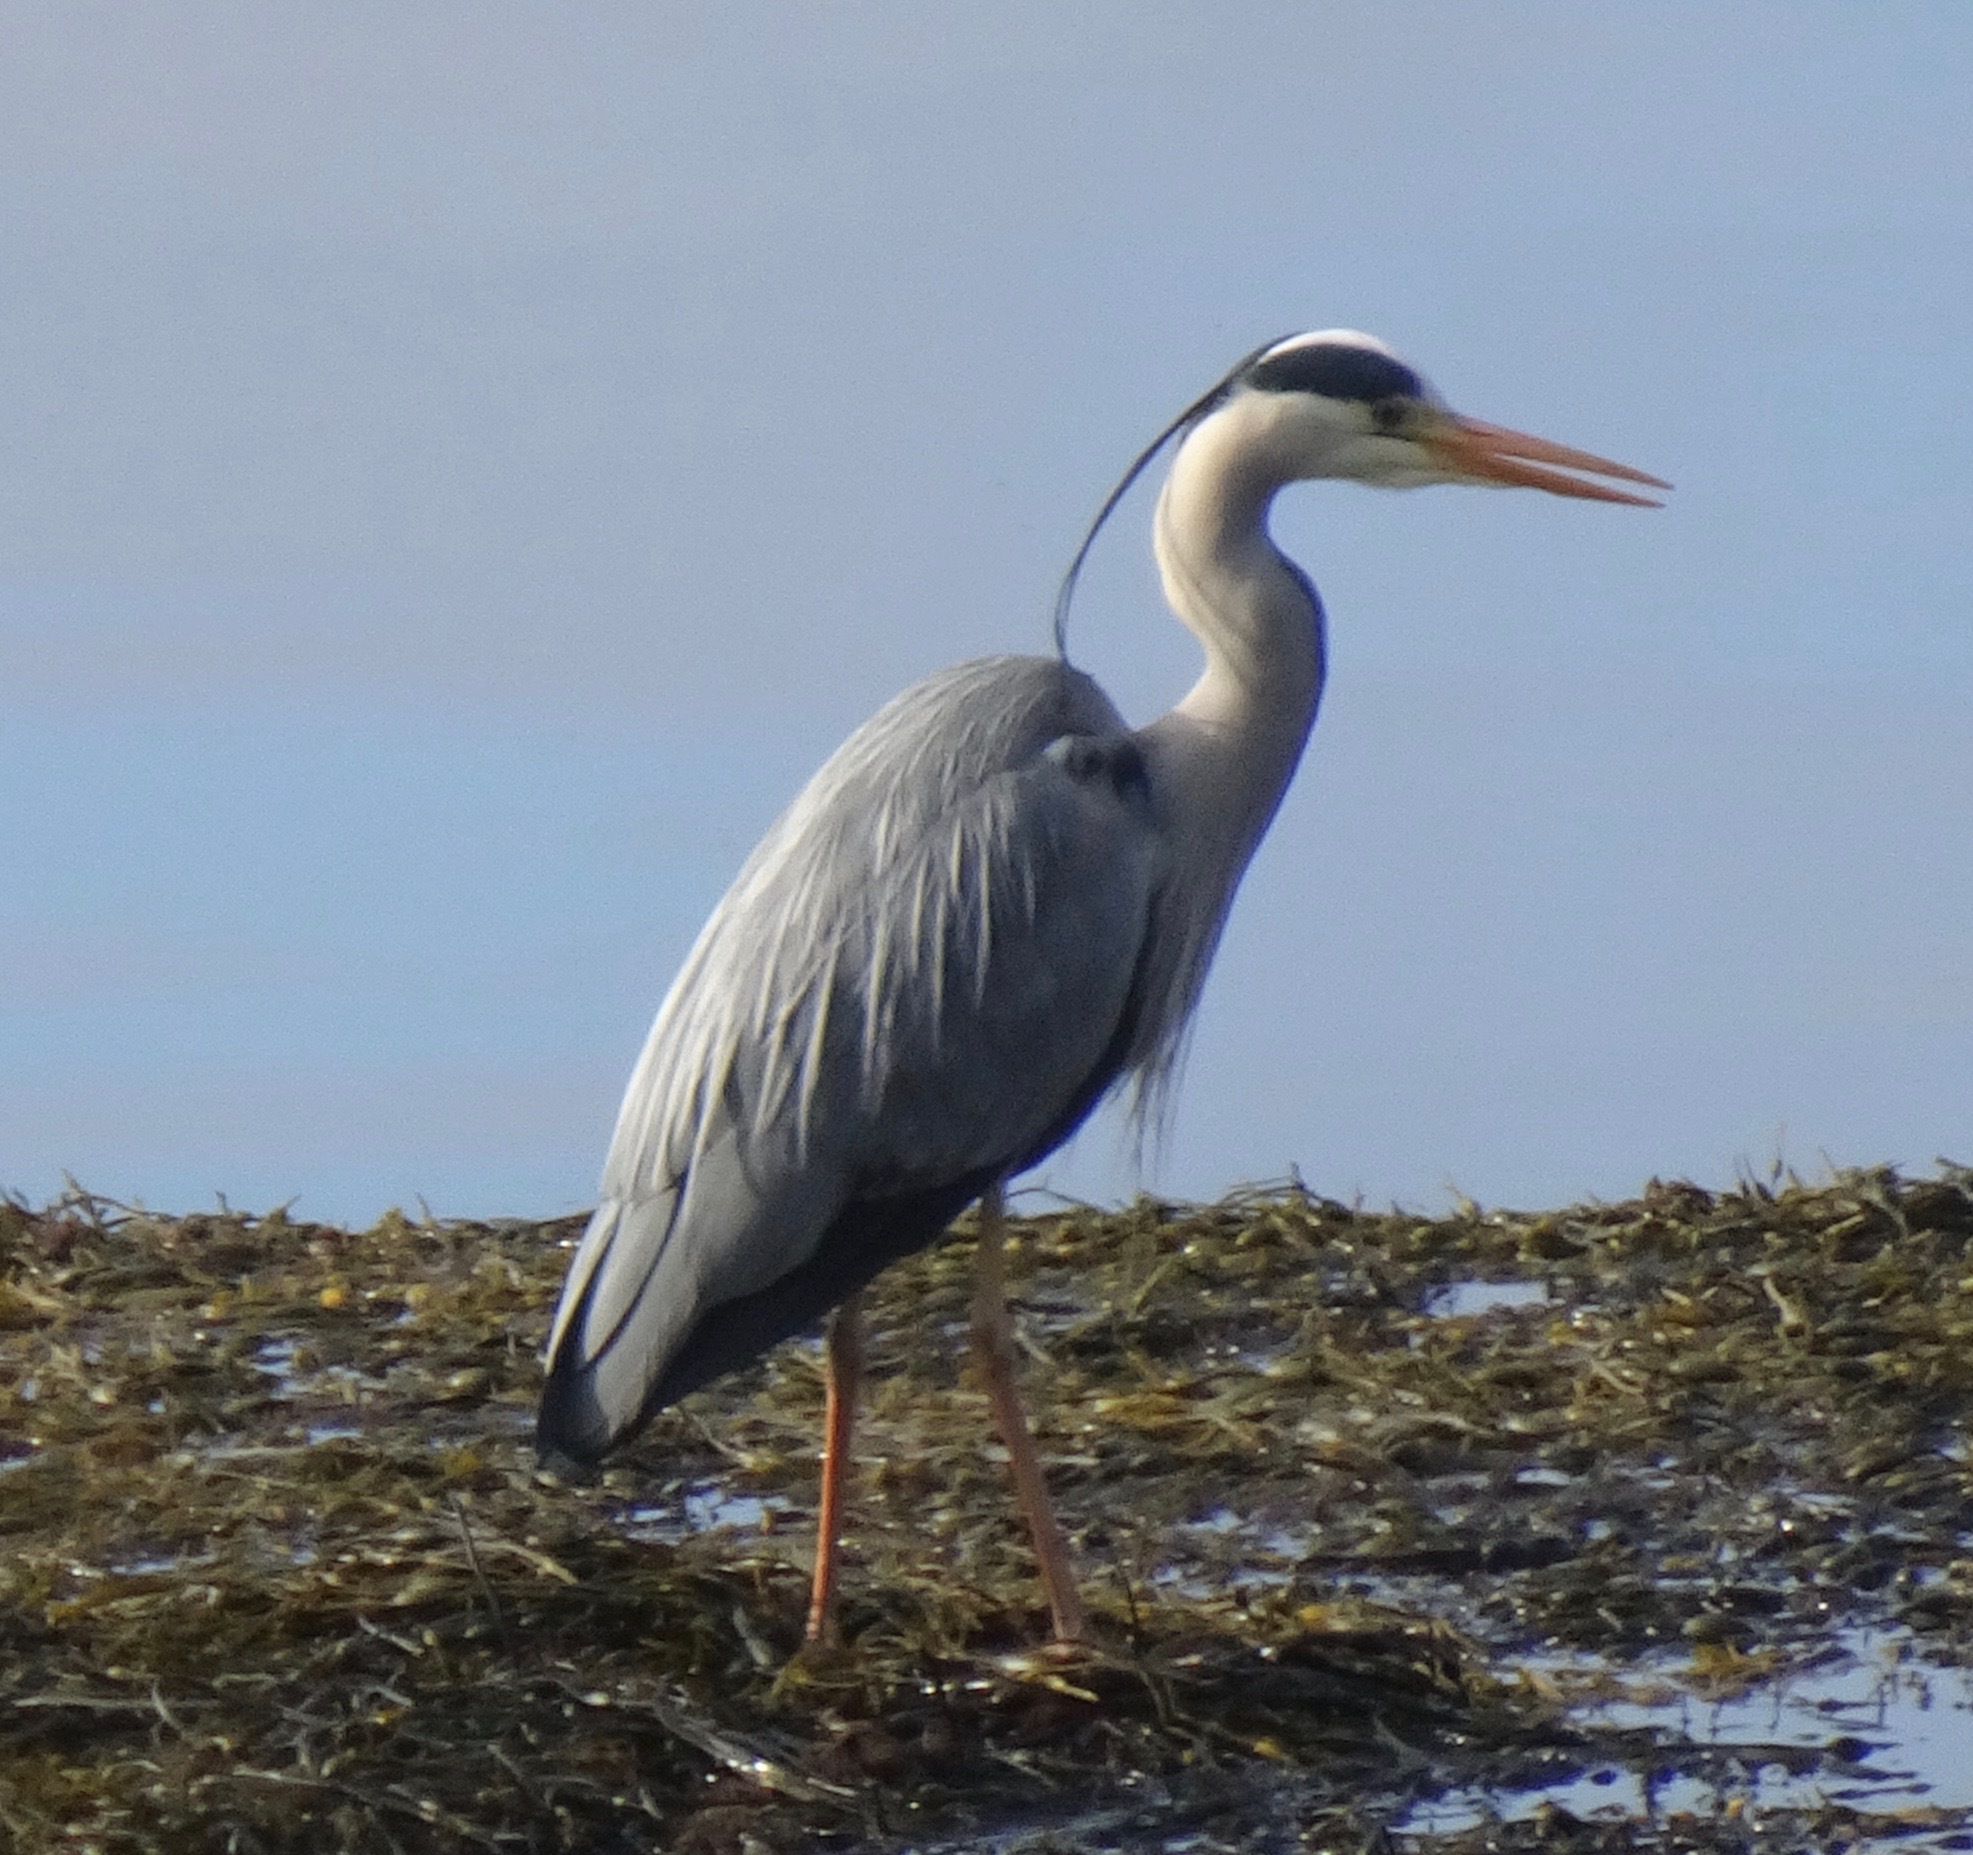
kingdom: Animalia
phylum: Chordata
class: Aves
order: Pelecaniformes
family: Ardeidae
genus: Ardea
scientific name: Ardea cinerea
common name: Grey heron
